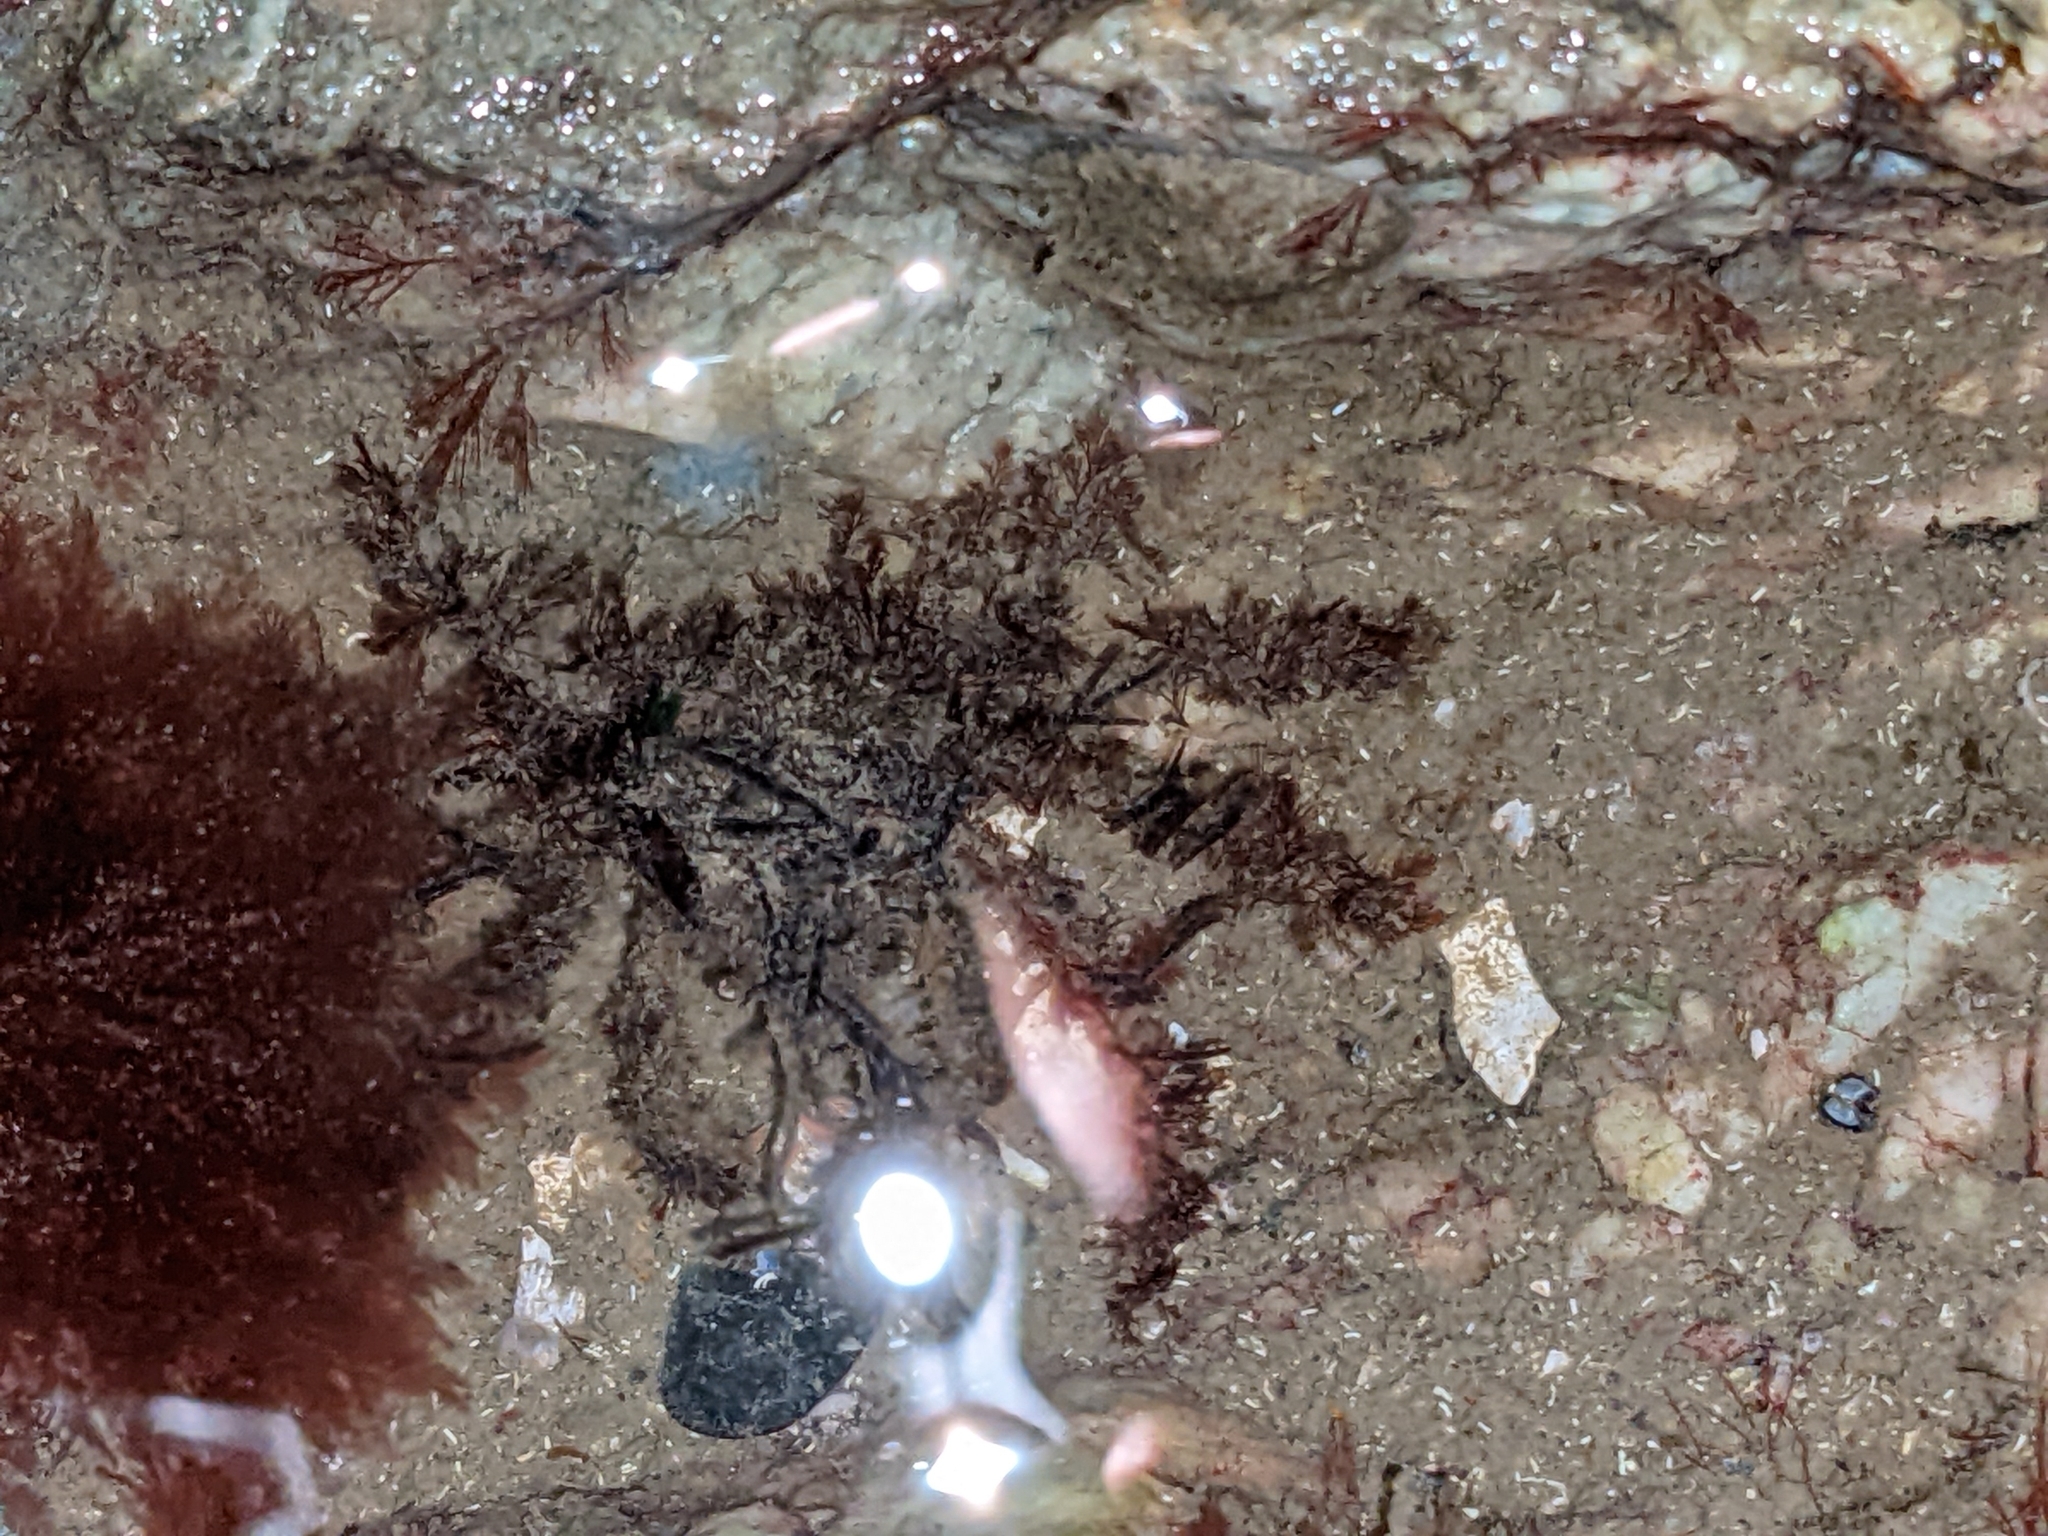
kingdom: Animalia
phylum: Arthropoda
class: Malacostraca
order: Decapoda
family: Oregoniidae
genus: Oregonia
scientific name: Oregonia gracilis
